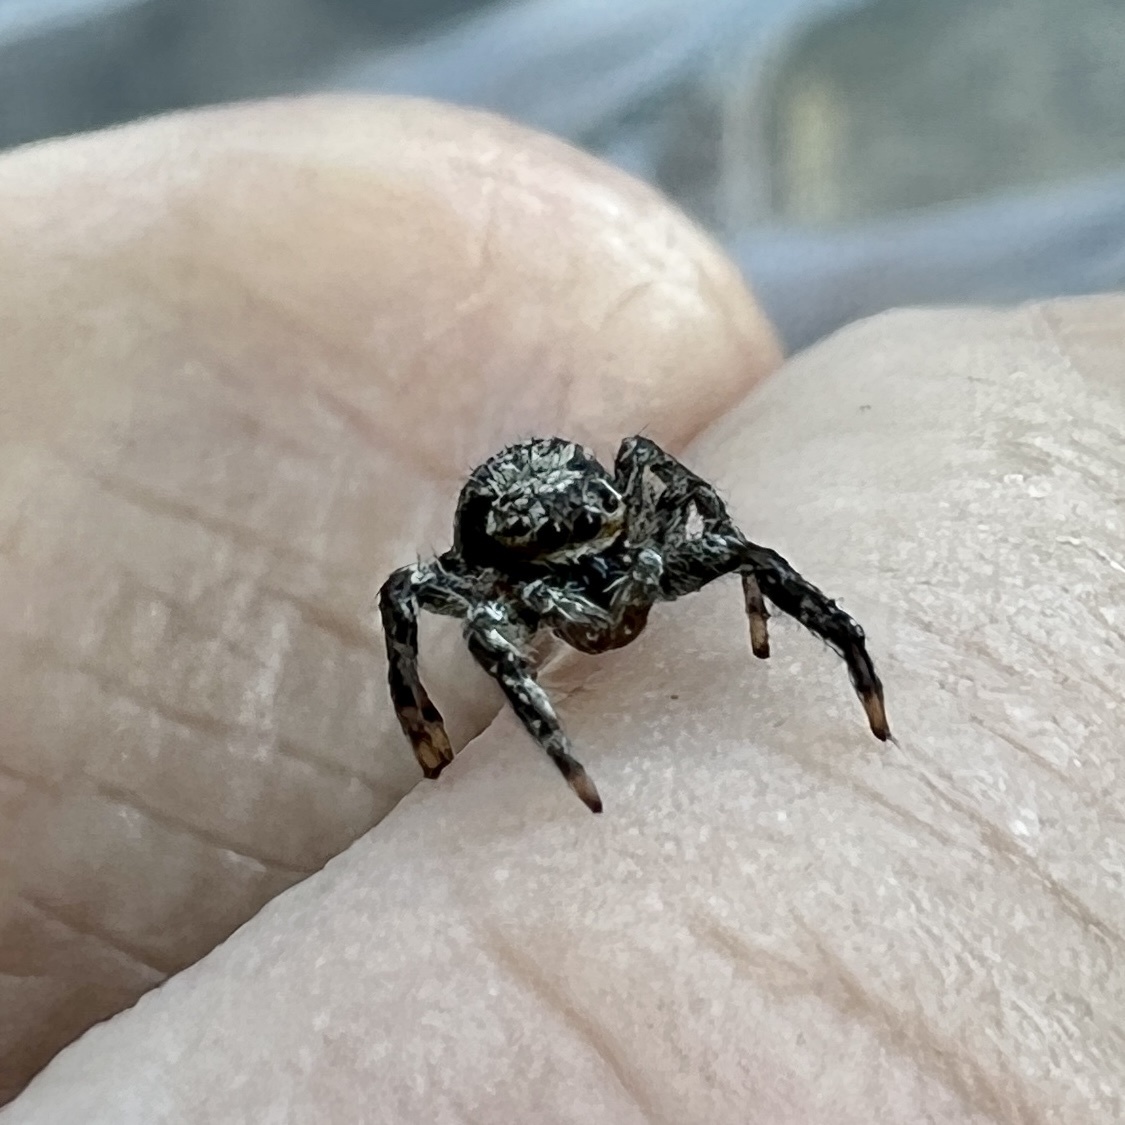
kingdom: Animalia
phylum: Arthropoda
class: Arachnida
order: Araneae
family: Salticidae
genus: Platycryptus
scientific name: Platycryptus undatus
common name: Tan jumping spider
